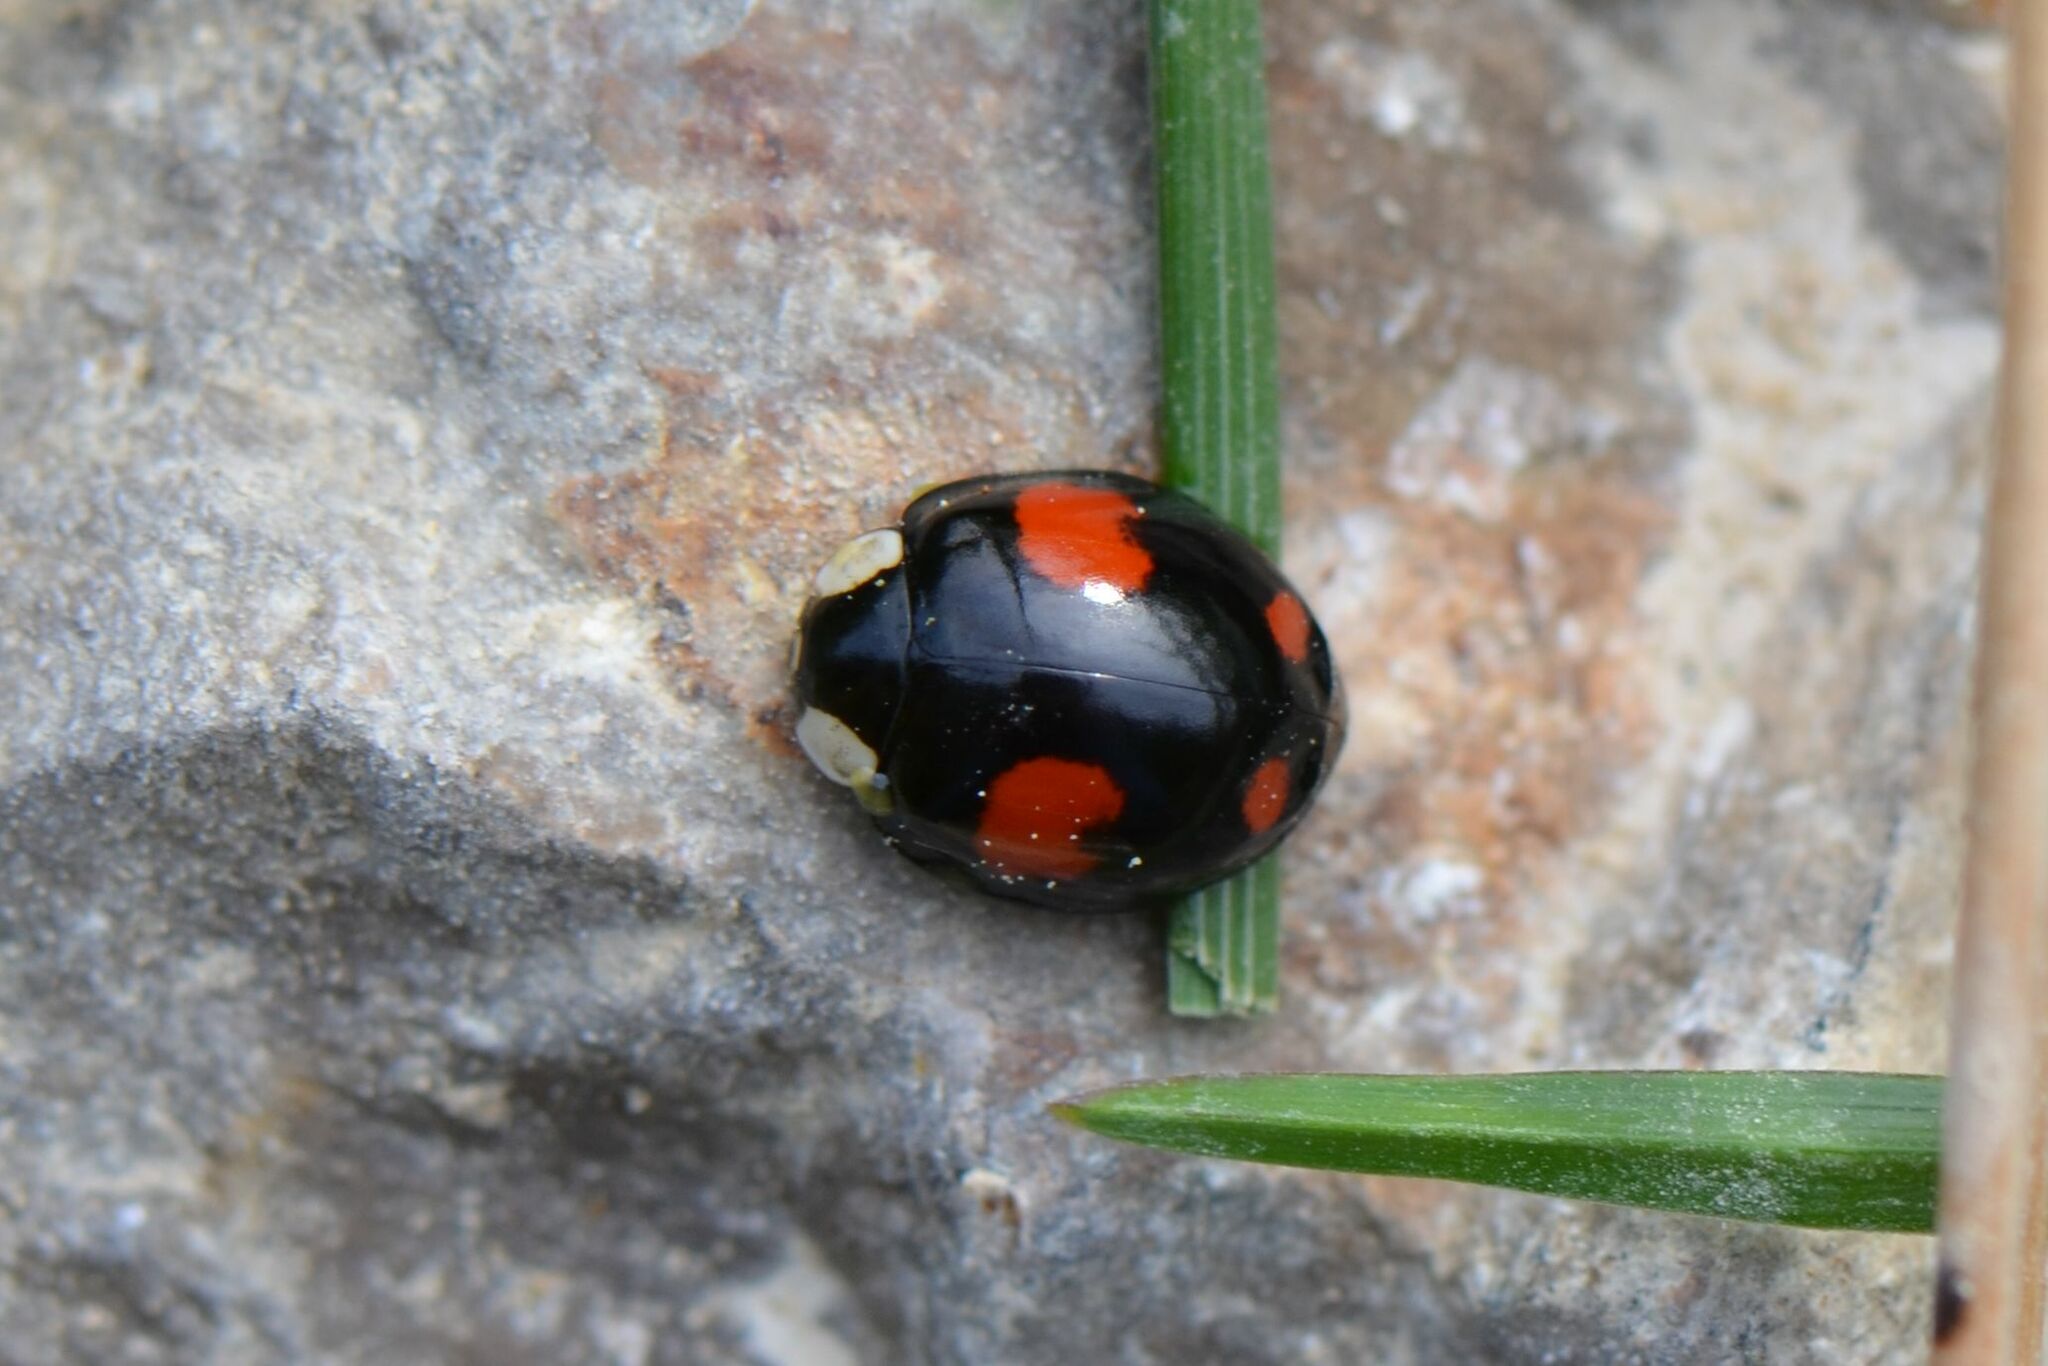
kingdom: Animalia
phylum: Arthropoda
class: Insecta
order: Coleoptera
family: Coccinellidae
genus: Harmonia
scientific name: Harmonia axyridis
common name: Harlequin ladybird
